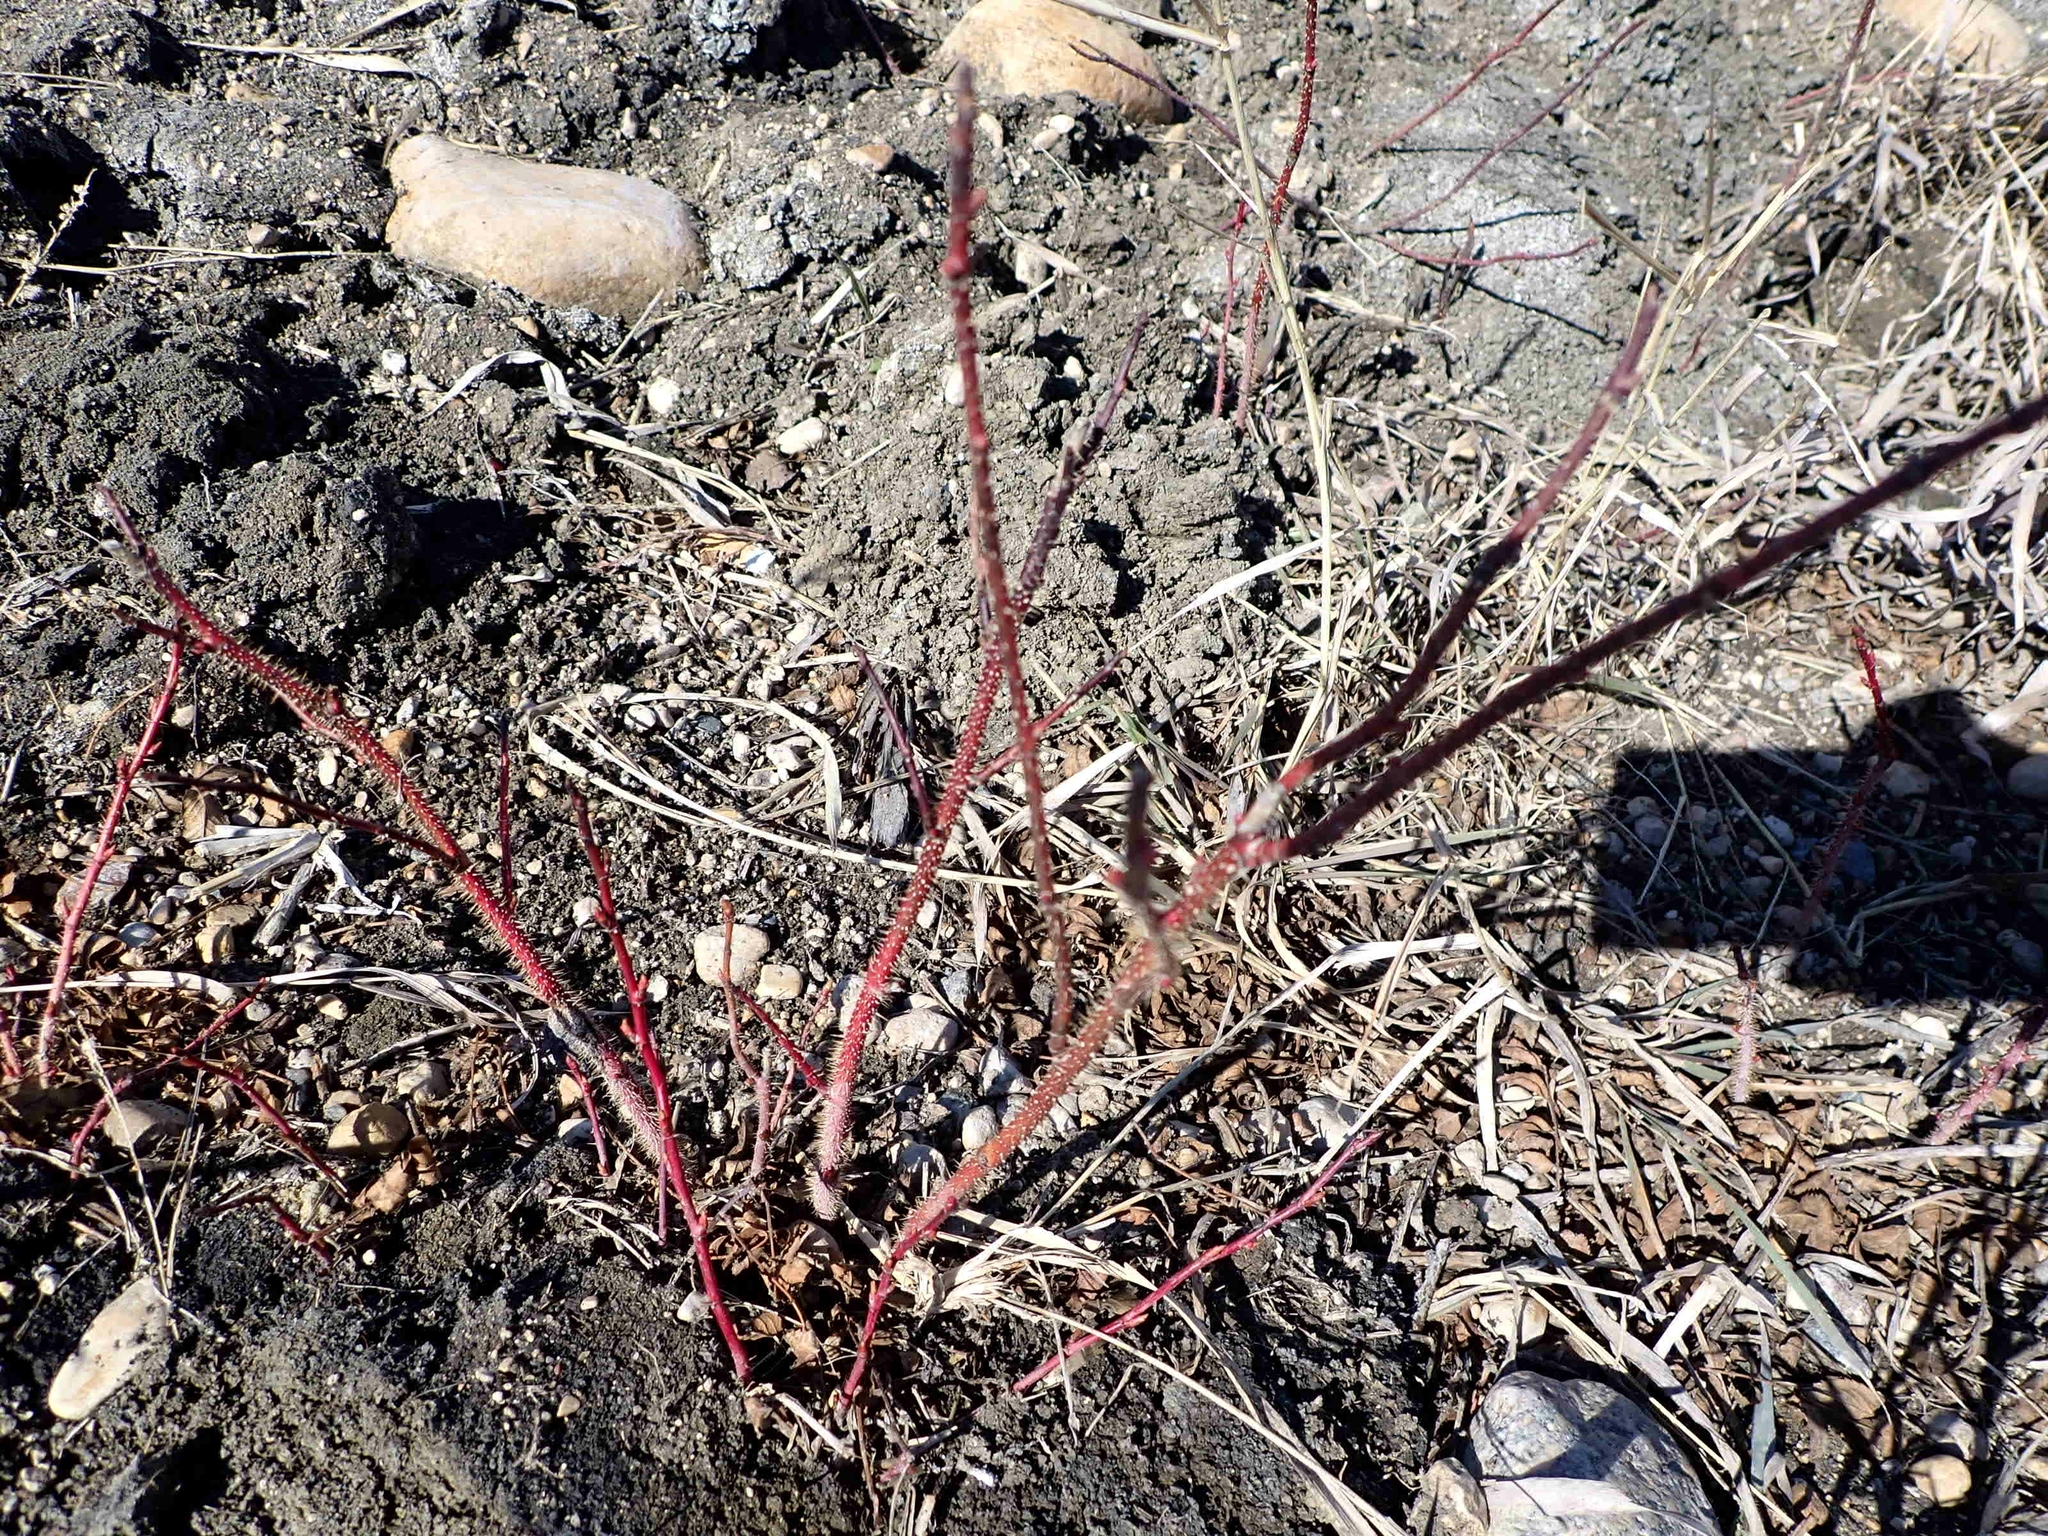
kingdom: Plantae
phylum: Tracheophyta
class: Magnoliopsida
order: Rosales
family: Rosaceae
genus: Rosa
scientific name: Rosa woodsii
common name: Woods's rose
